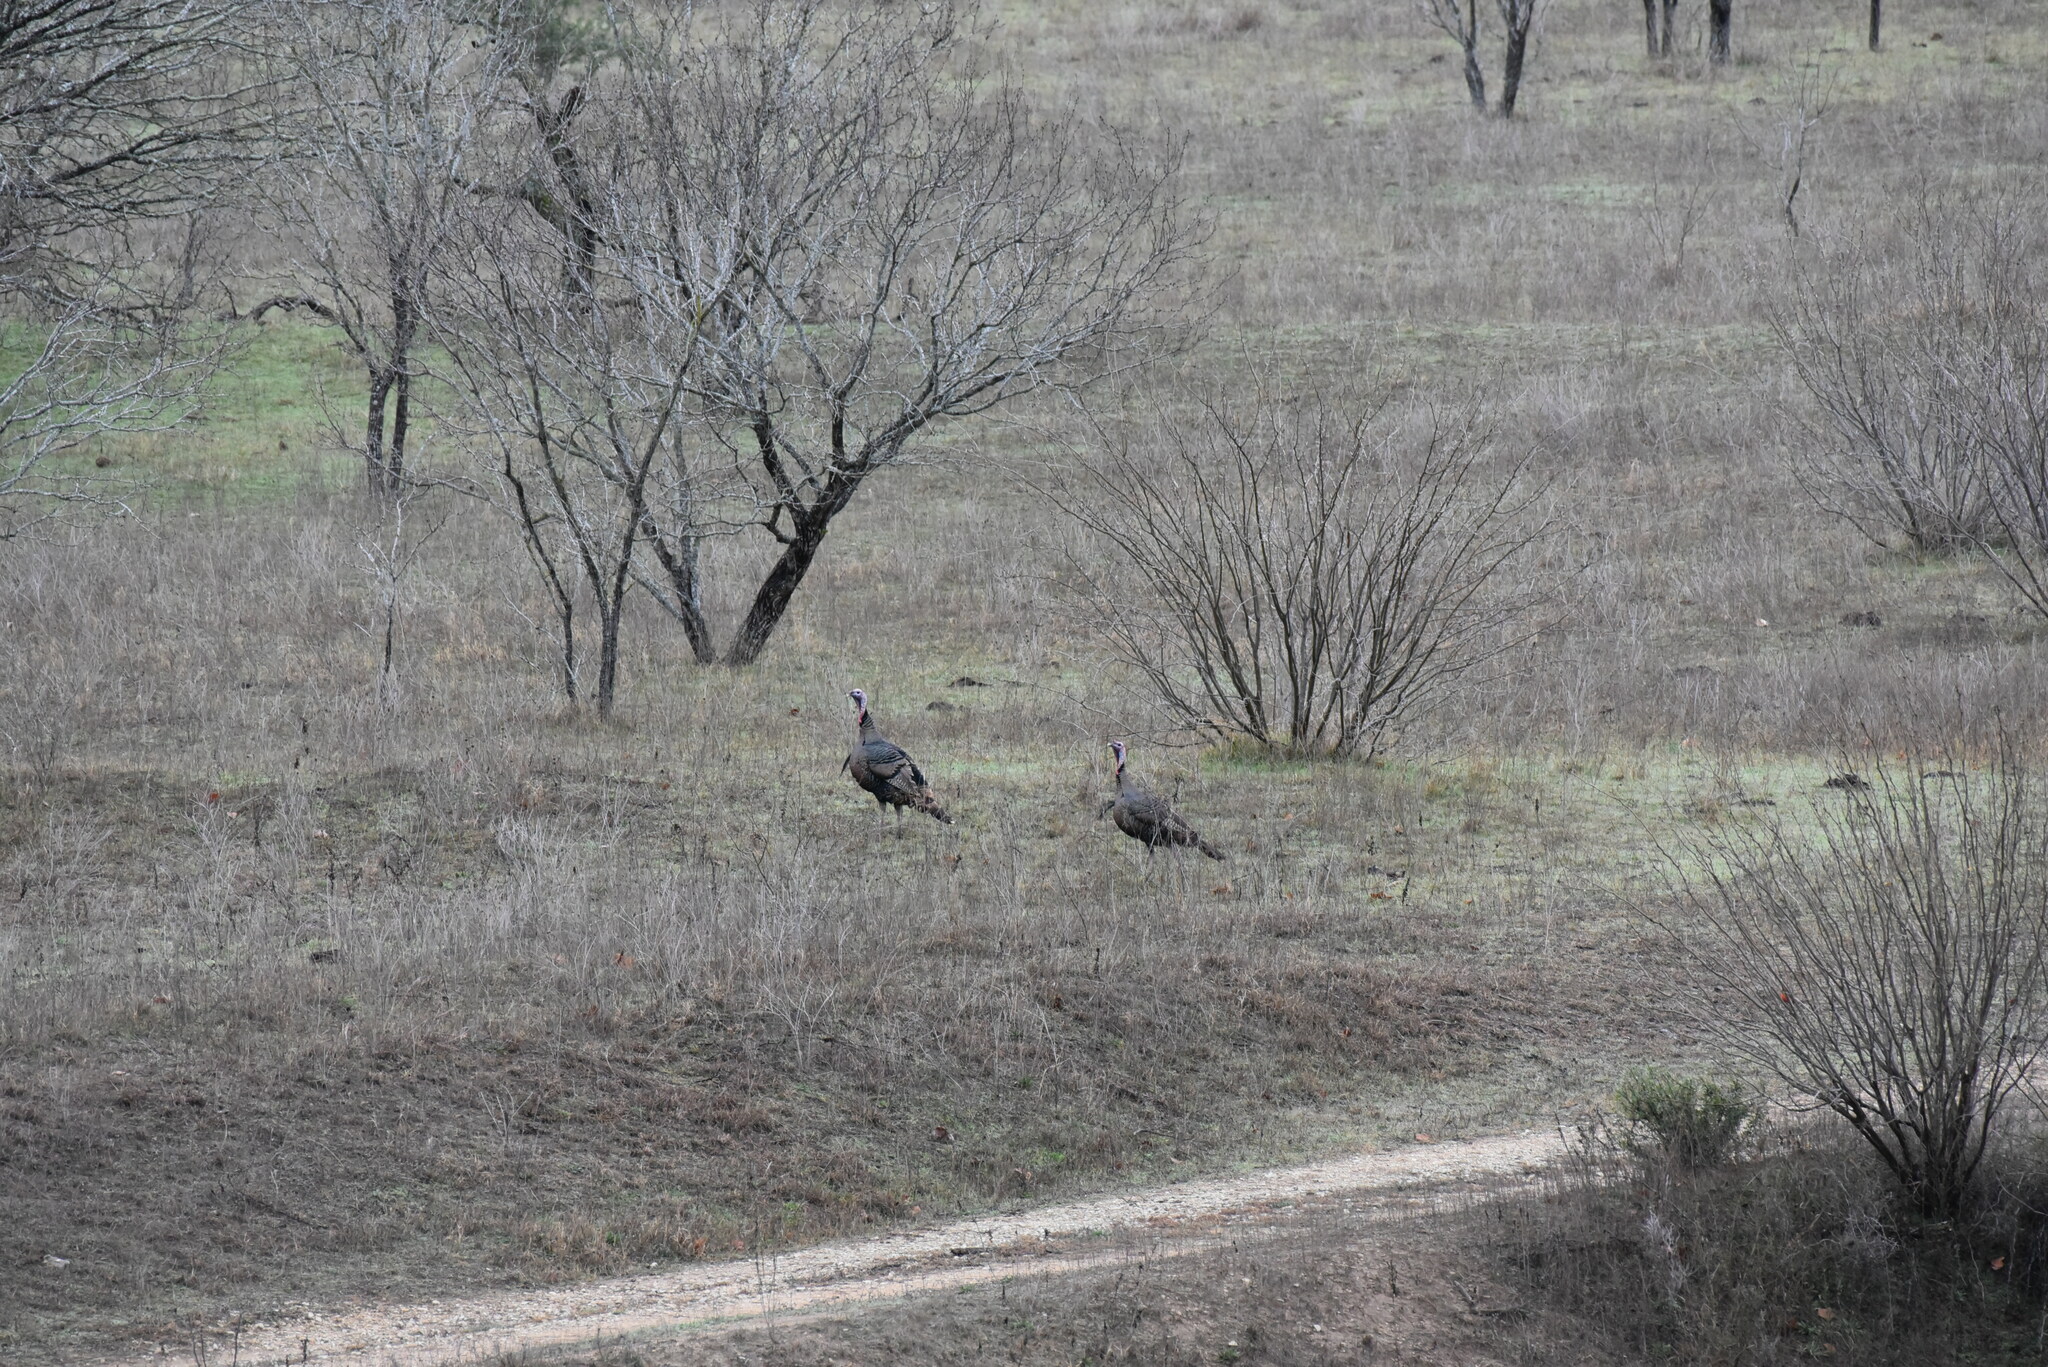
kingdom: Animalia
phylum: Chordata
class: Aves
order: Galliformes
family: Phasianidae
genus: Meleagris
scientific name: Meleagris gallopavo
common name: Wild turkey
